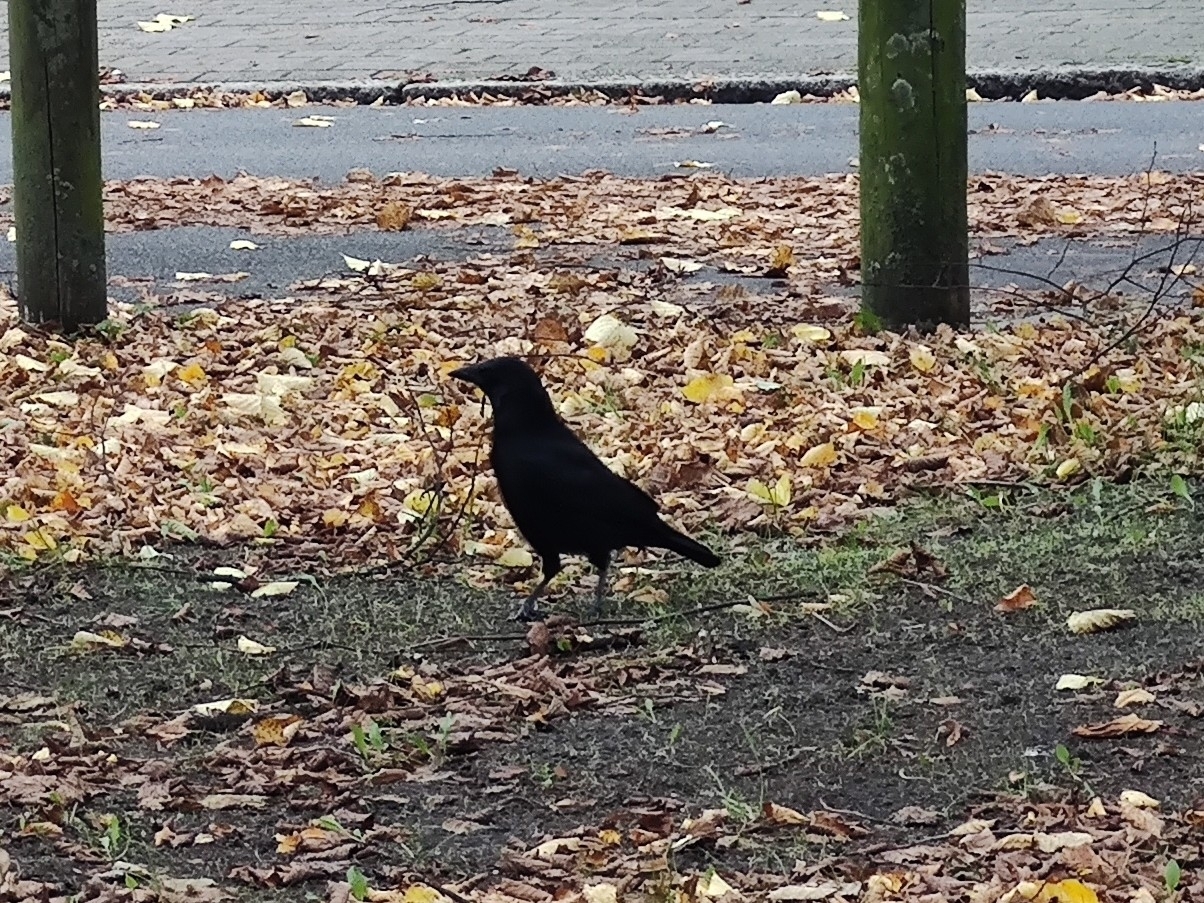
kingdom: Animalia
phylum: Chordata
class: Aves
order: Passeriformes
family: Corvidae
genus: Corvus
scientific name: Corvus corone
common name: Carrion crow
